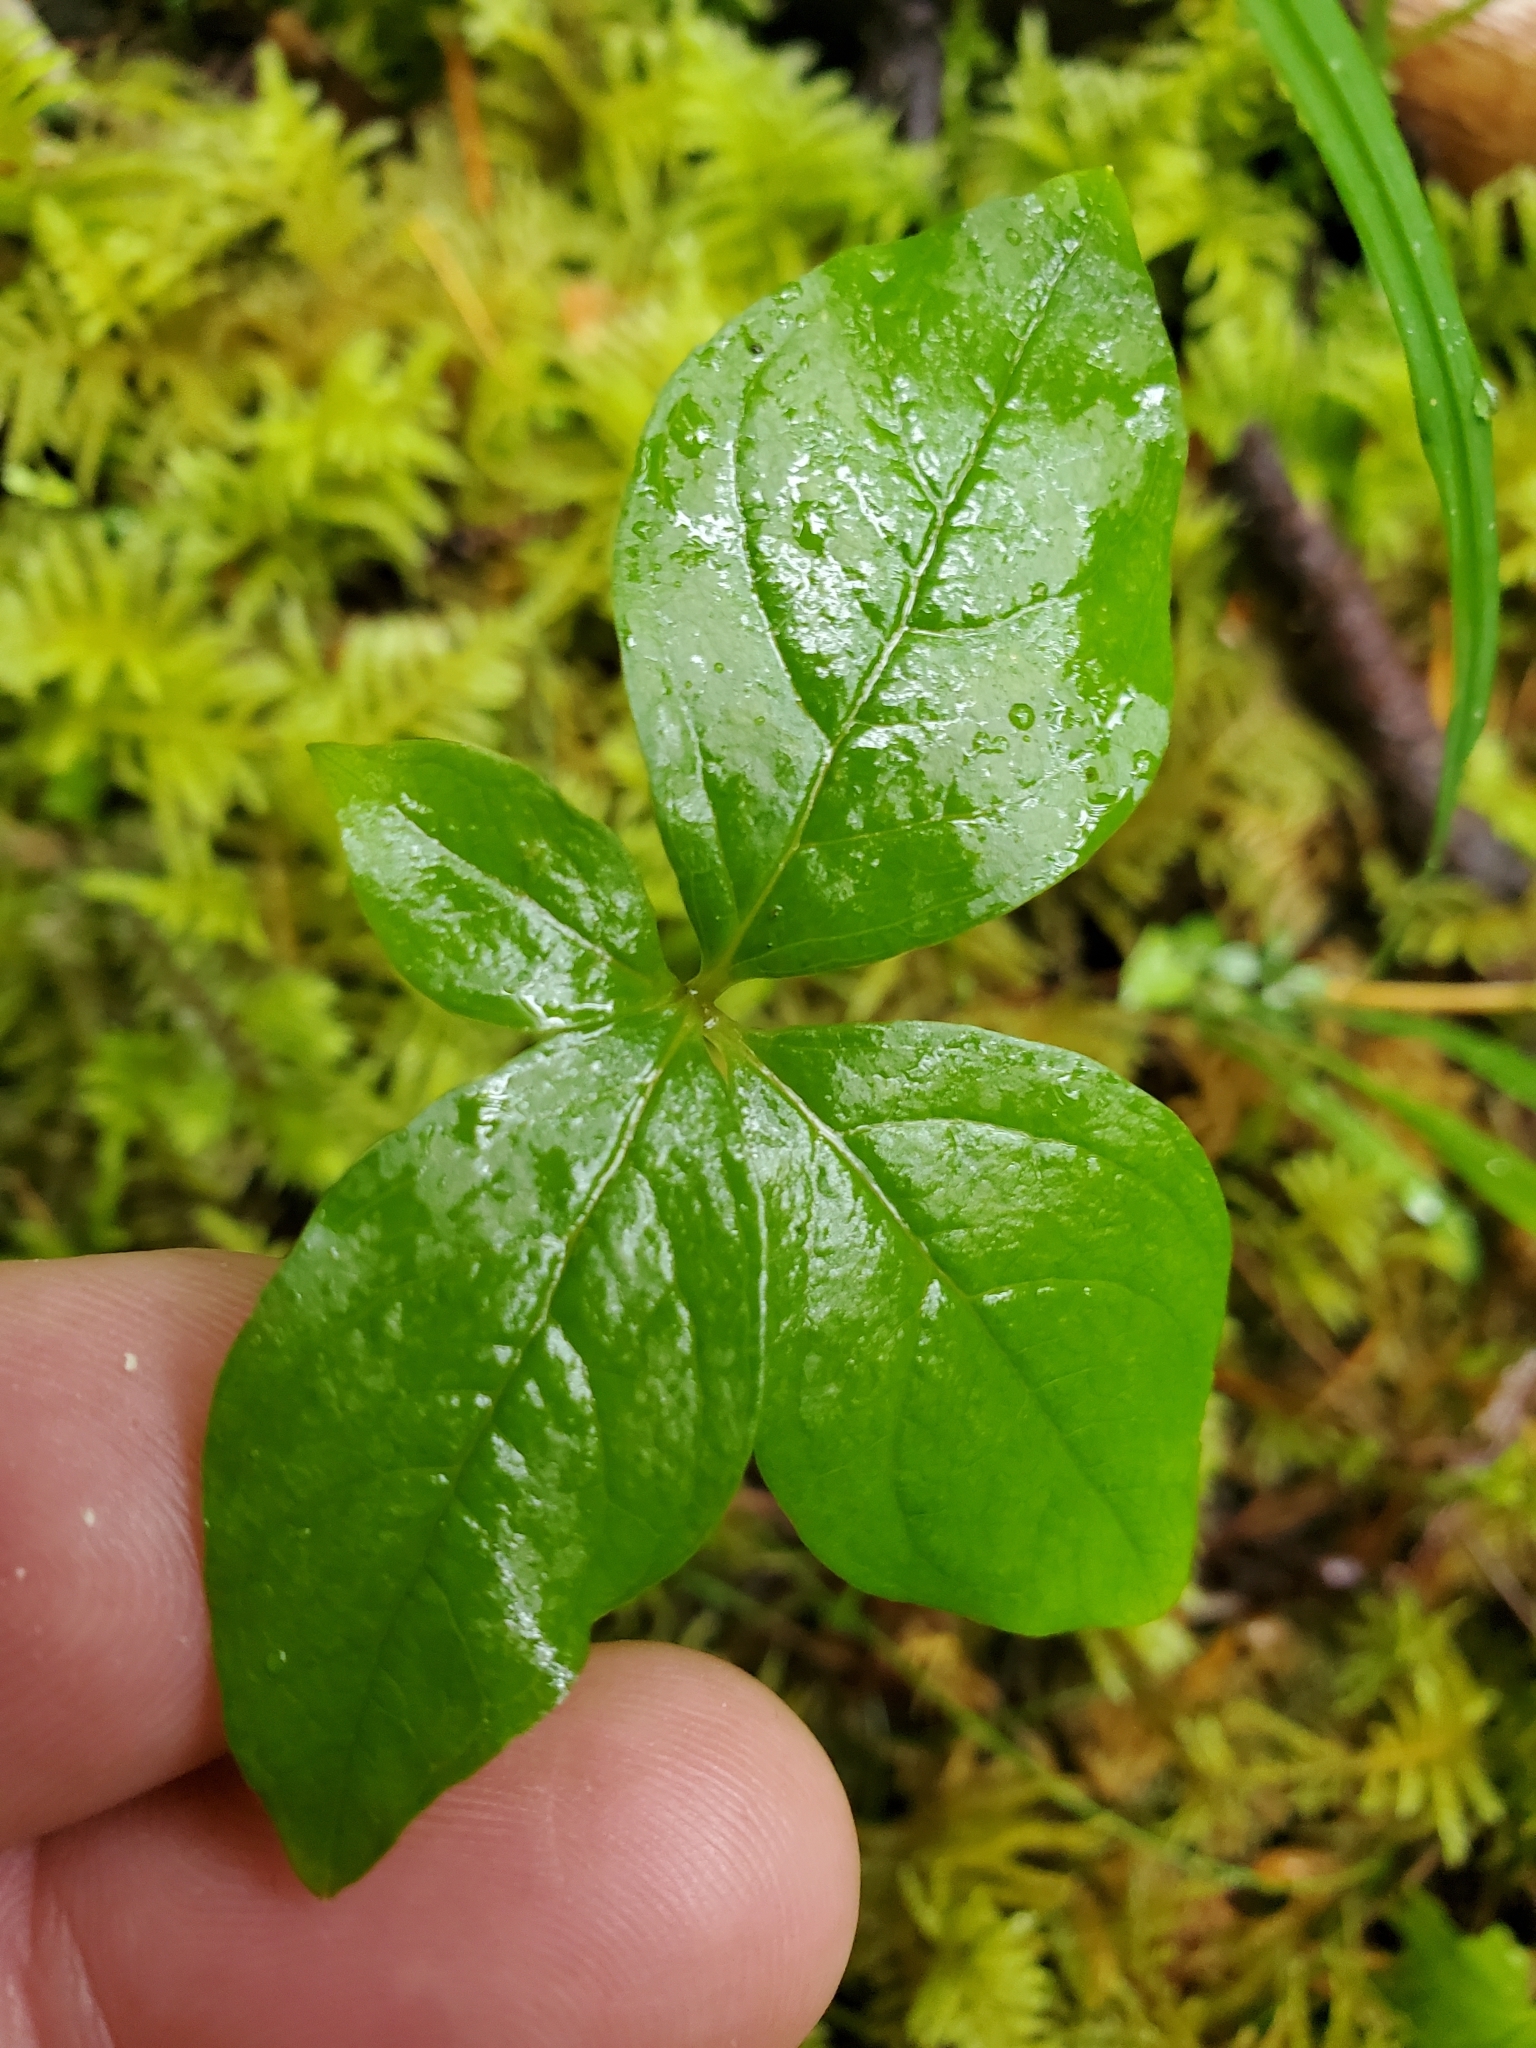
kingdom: Plantae
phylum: Tracheophyta
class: Magnoliopsida
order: Ericales
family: Primulaceae
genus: Lysimachia
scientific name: Lysimachia latifolia
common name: Pacific starflower
